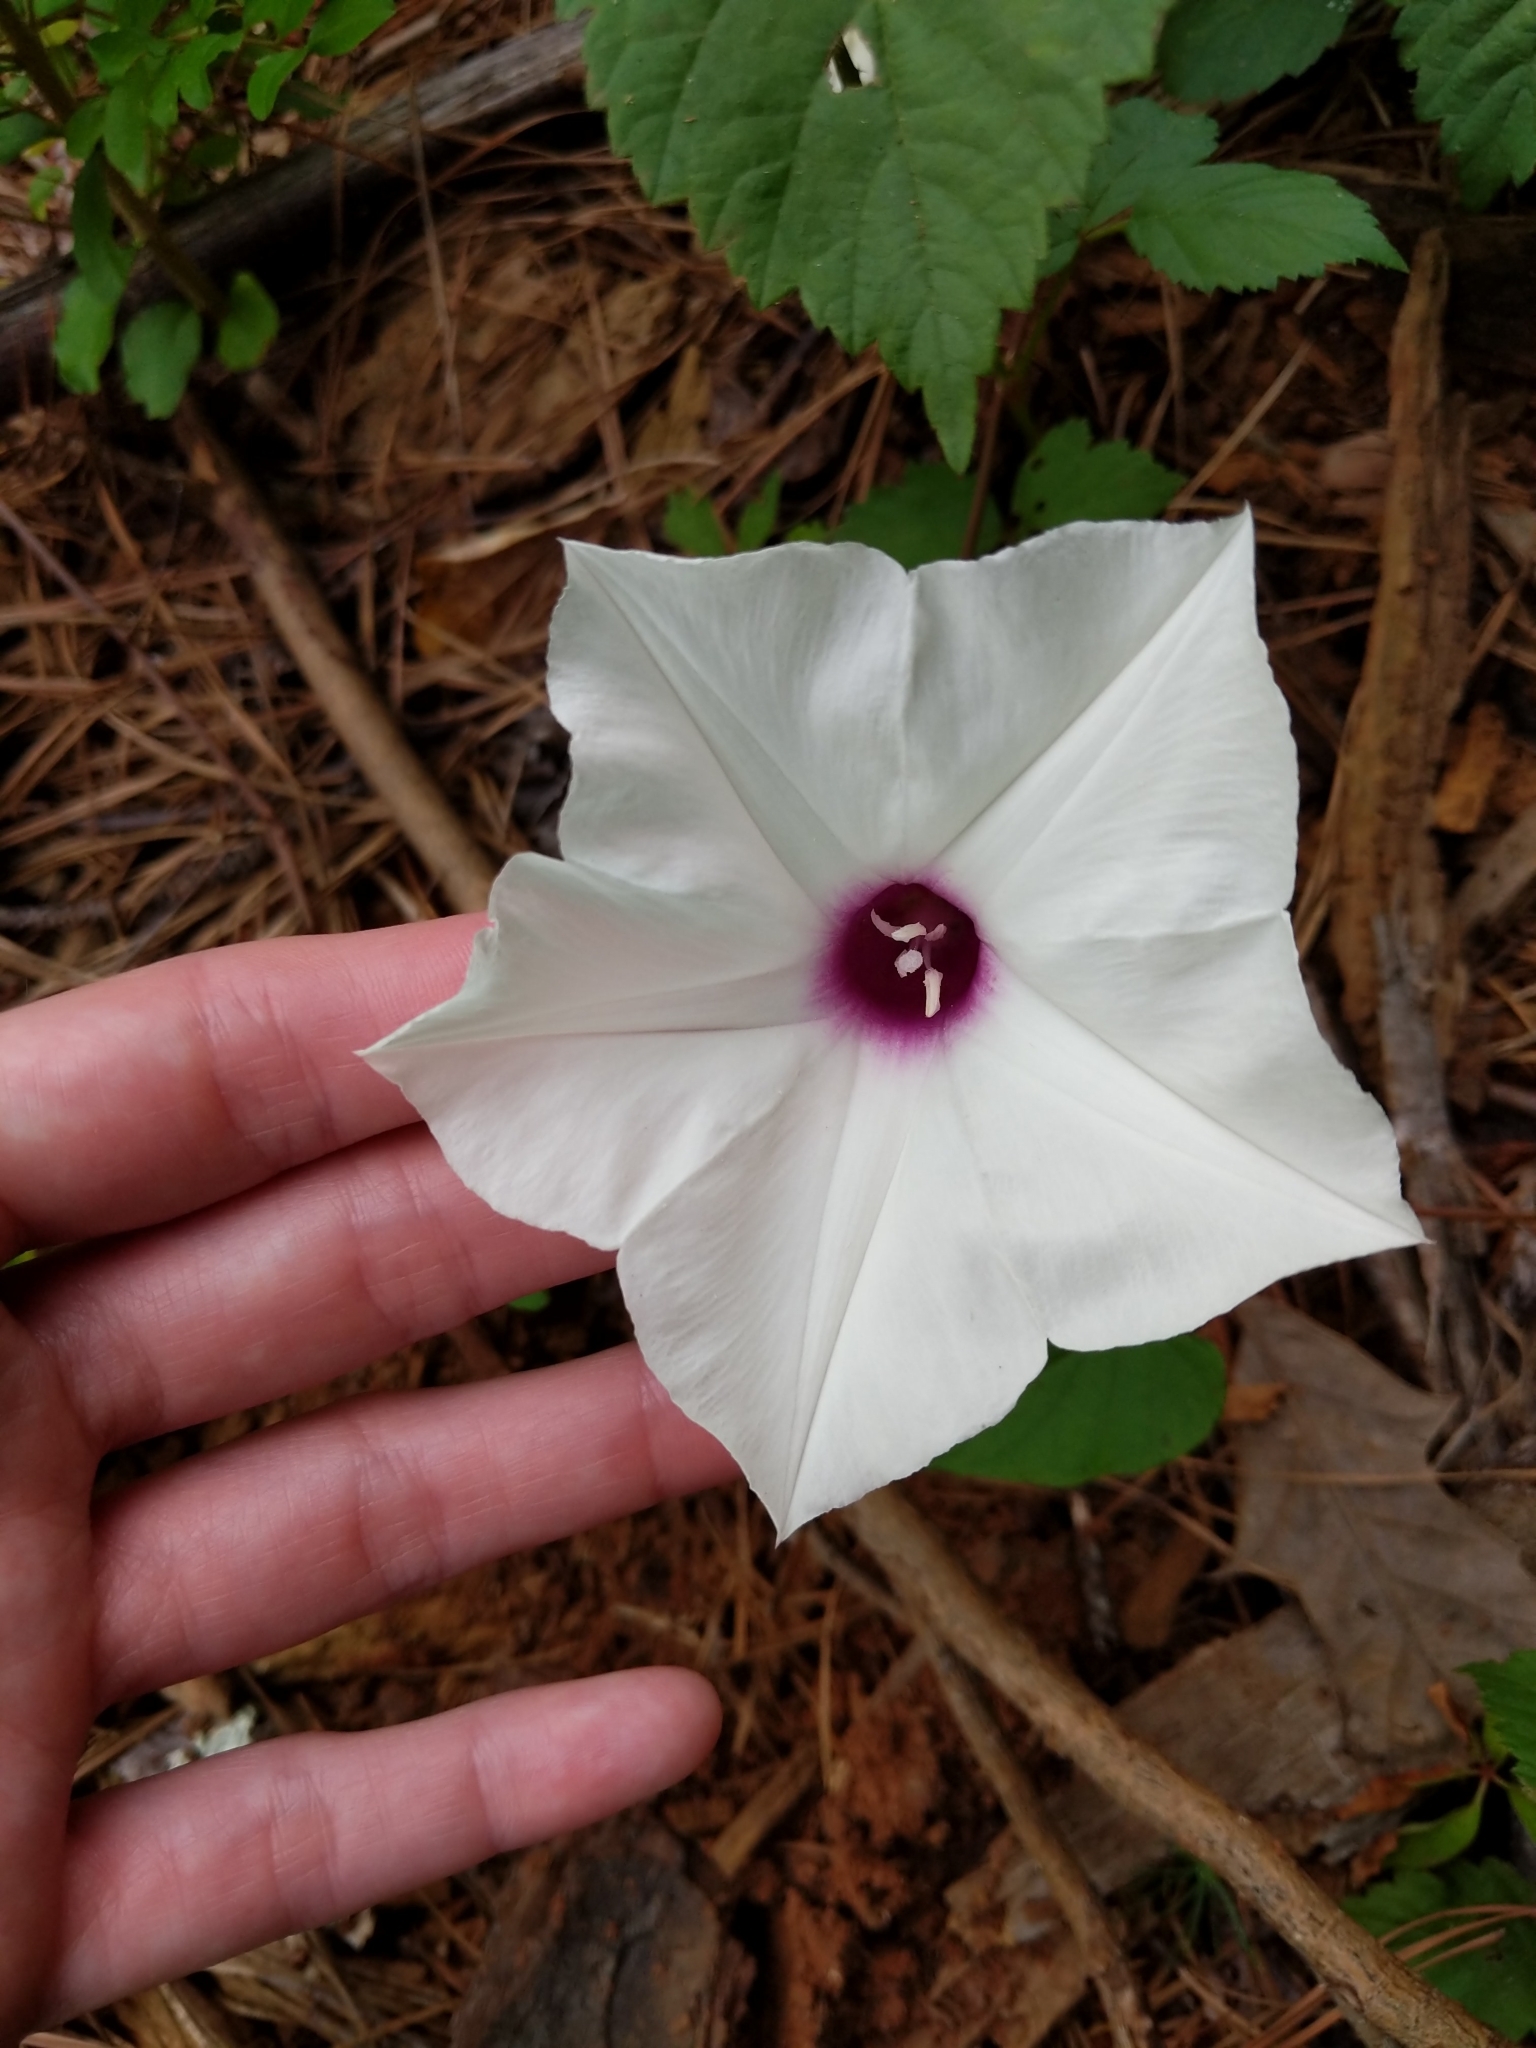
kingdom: Plantae
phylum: Tracheophyta
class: Magnoliopsida
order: Solanales
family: Convolvulaceae
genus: Ipomoea
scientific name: Ipomoea pandurata
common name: Man-of-the-earth
